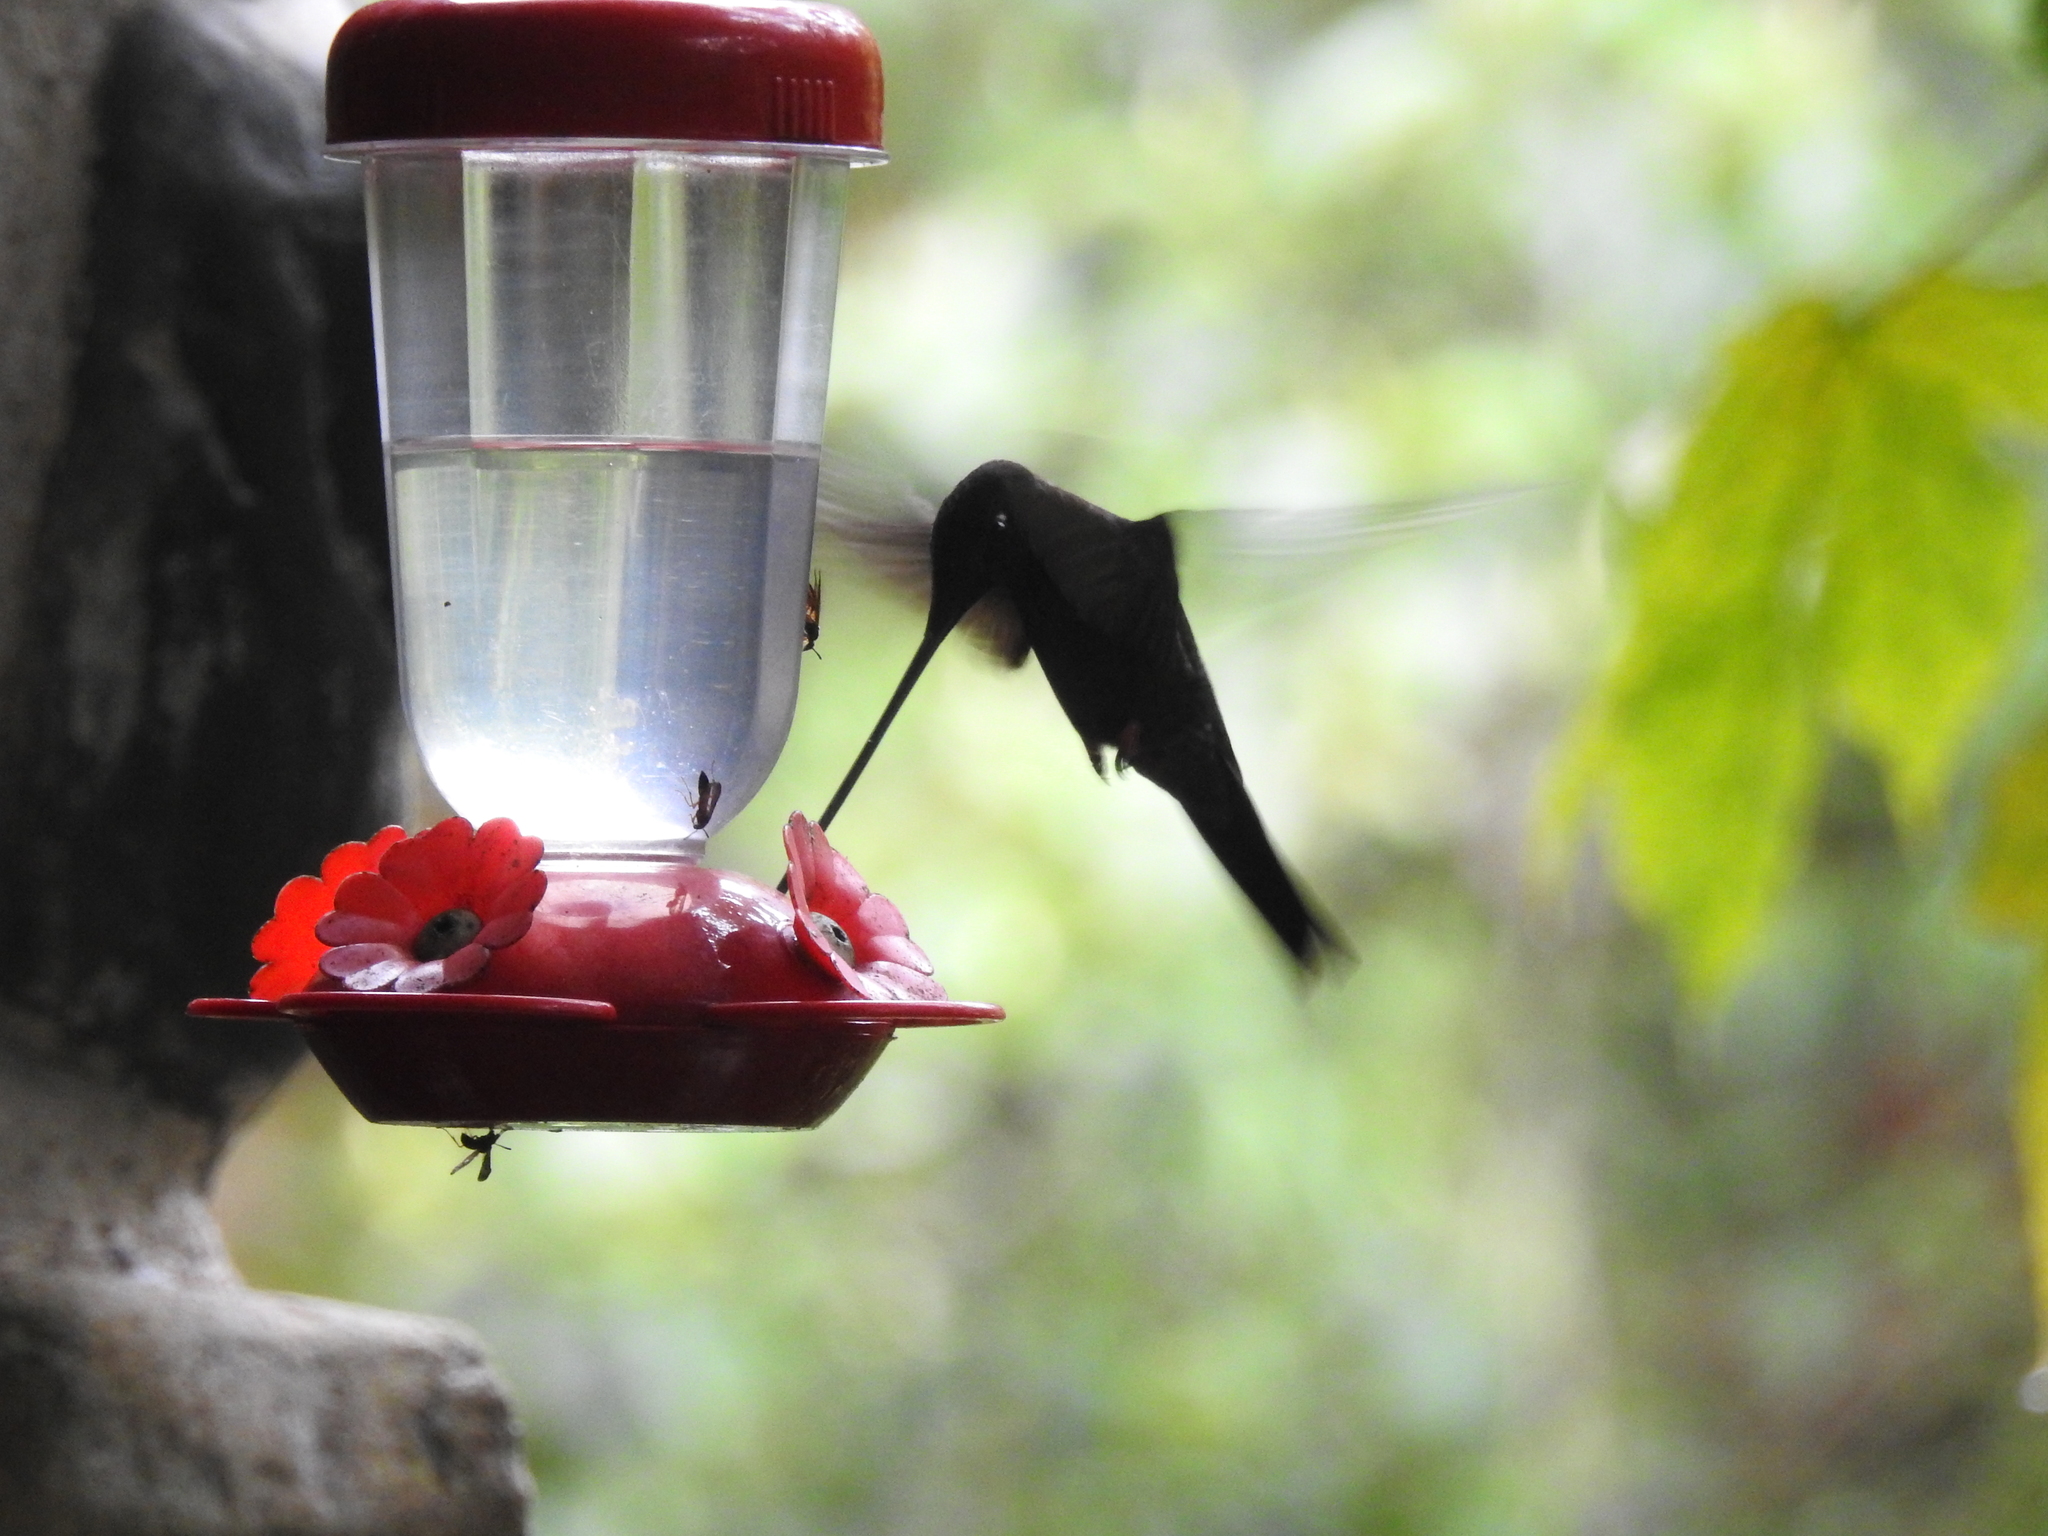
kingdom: Animalia
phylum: Chordata
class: Aves
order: Apodiformes
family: Trochilidae
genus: Ensifera
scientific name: Ensifera ensifera
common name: Sword-billed hummingbird
